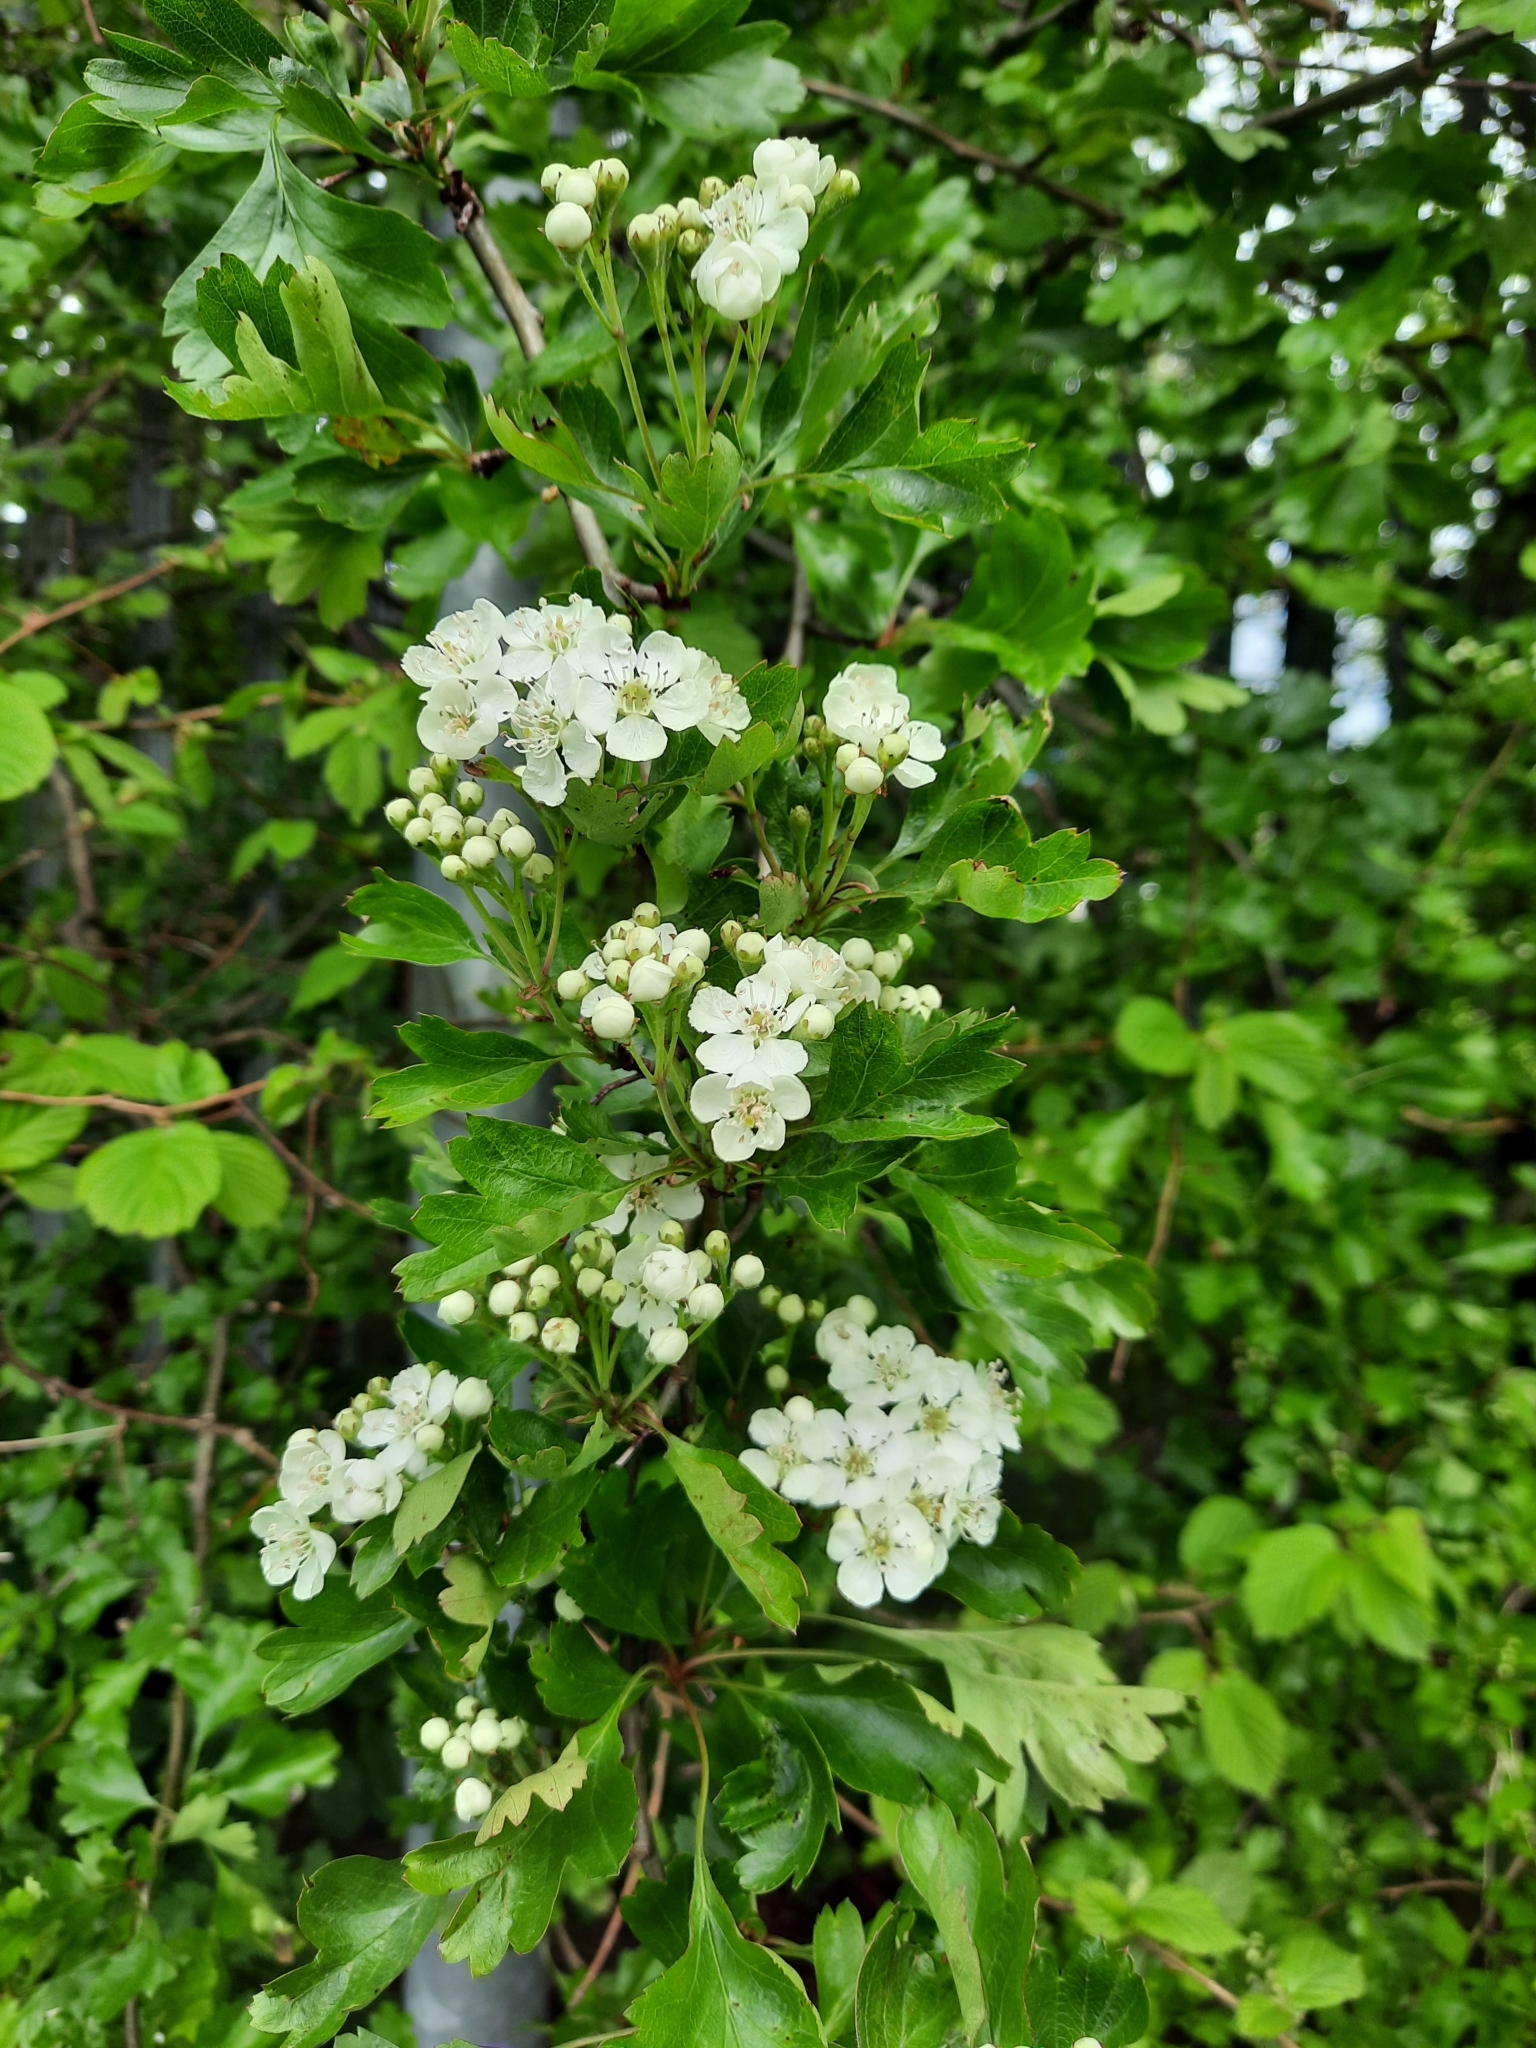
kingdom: Plantae
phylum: Tracheophyta
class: Magnoliopsida
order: Rosales
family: Rosaceae
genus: Crataegus
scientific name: Crataegus monogyna
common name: Hawthorn
